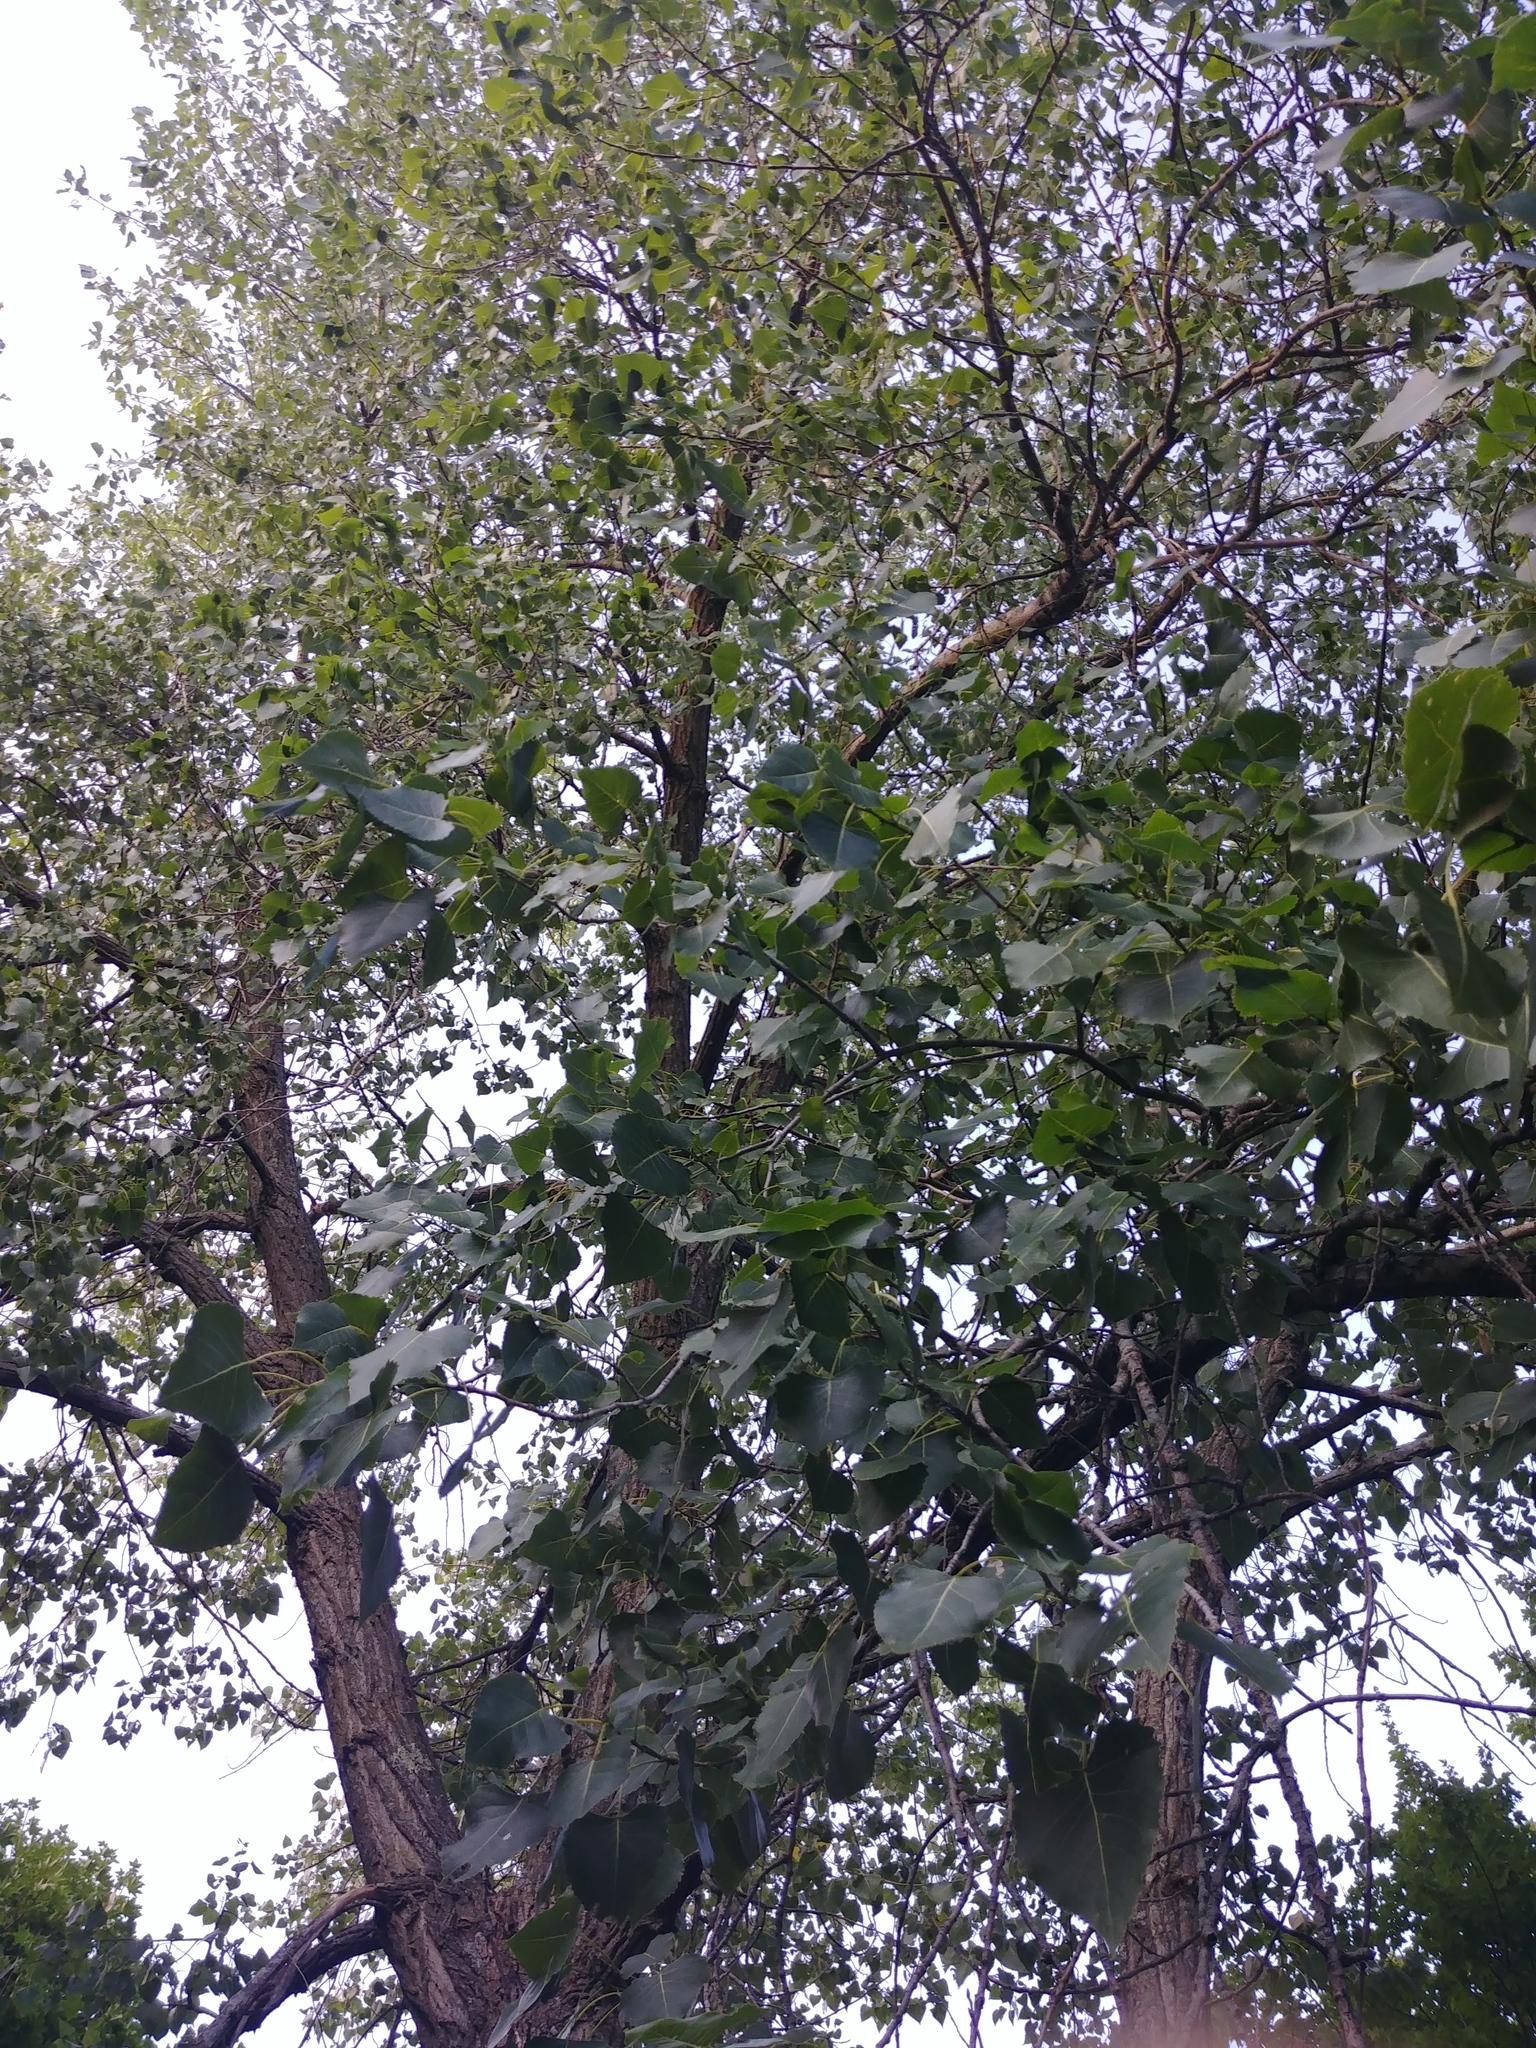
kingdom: Plantae
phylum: Tracheophyta
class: Magnoliopsida
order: Malpighiales
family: Salicaceae
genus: Populus
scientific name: Populus deltoides
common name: Eastern cottonwood
